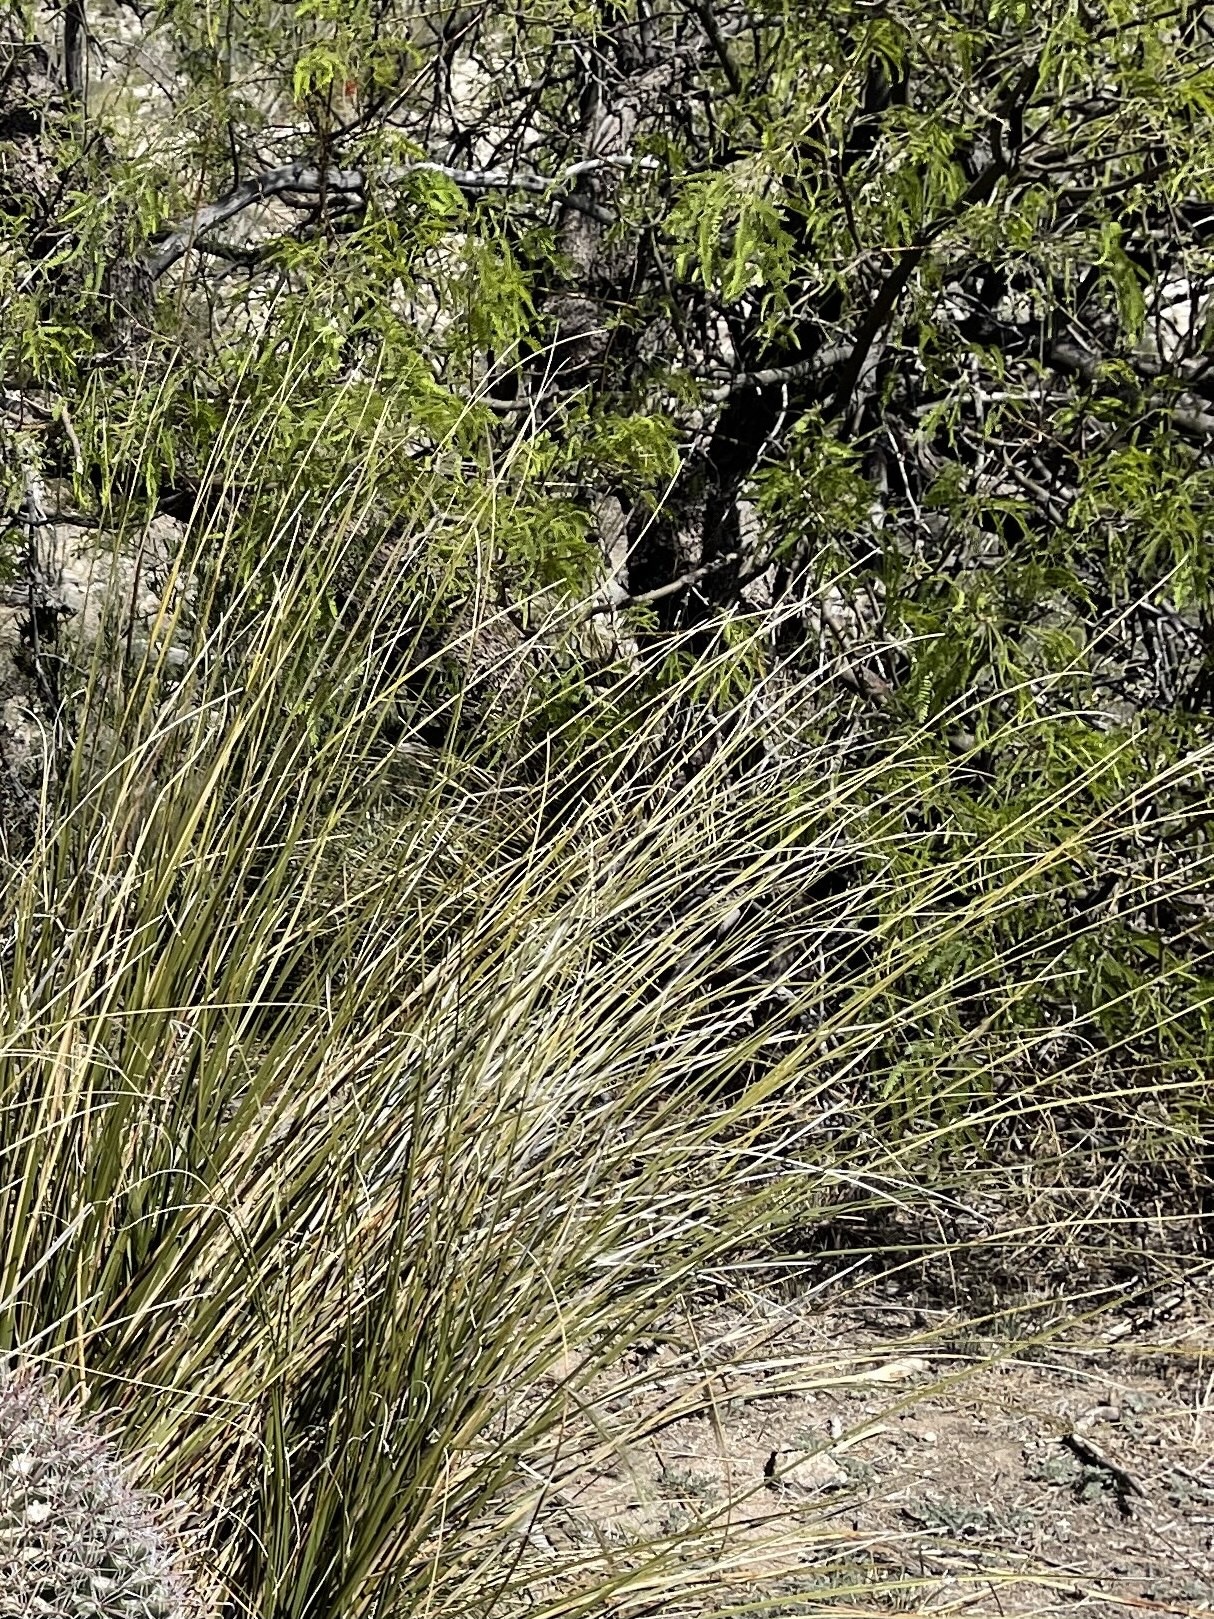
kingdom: Plantae
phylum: Tracheophyta
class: Liliopsida
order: Asparagales
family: Asparagaceae
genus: Nolina
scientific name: Nolina microcarpa
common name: Bear-grass
